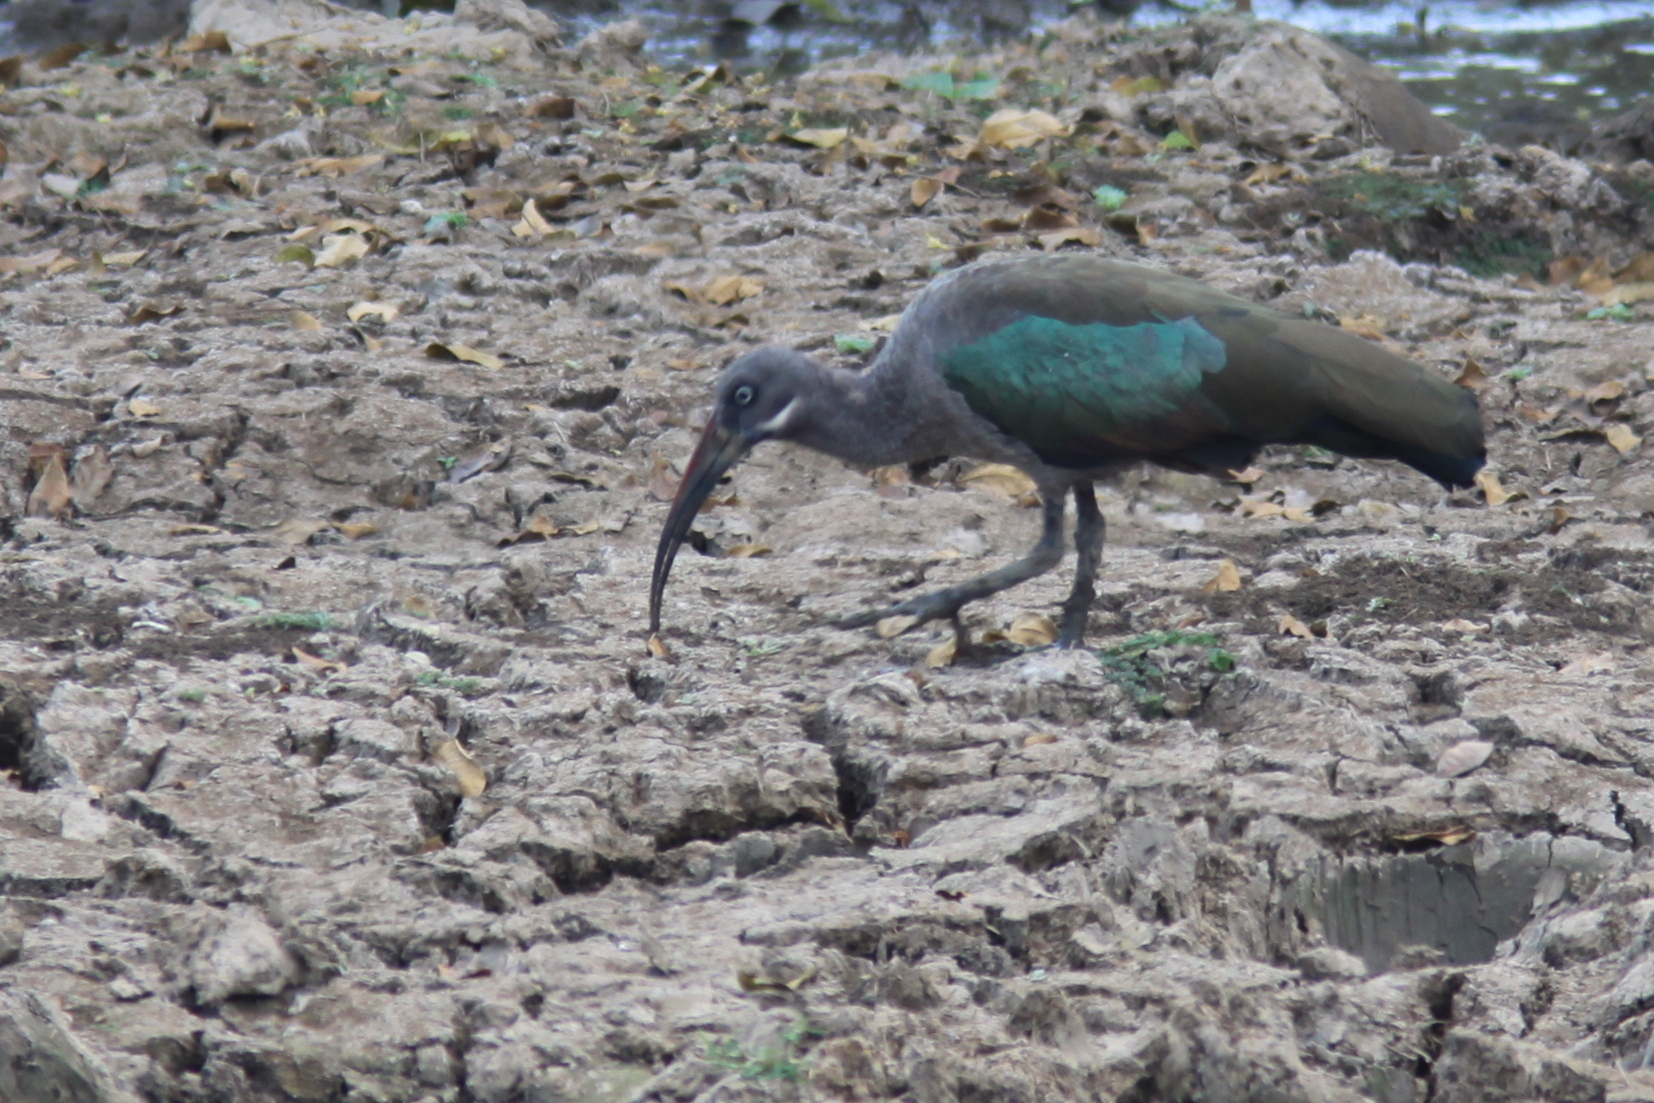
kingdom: Animalia
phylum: Chordata
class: Aves
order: Pelecaniformes
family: Threskiornithidae
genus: Bostrychia
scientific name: Bostrychia hagedash
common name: Hadada ibis
